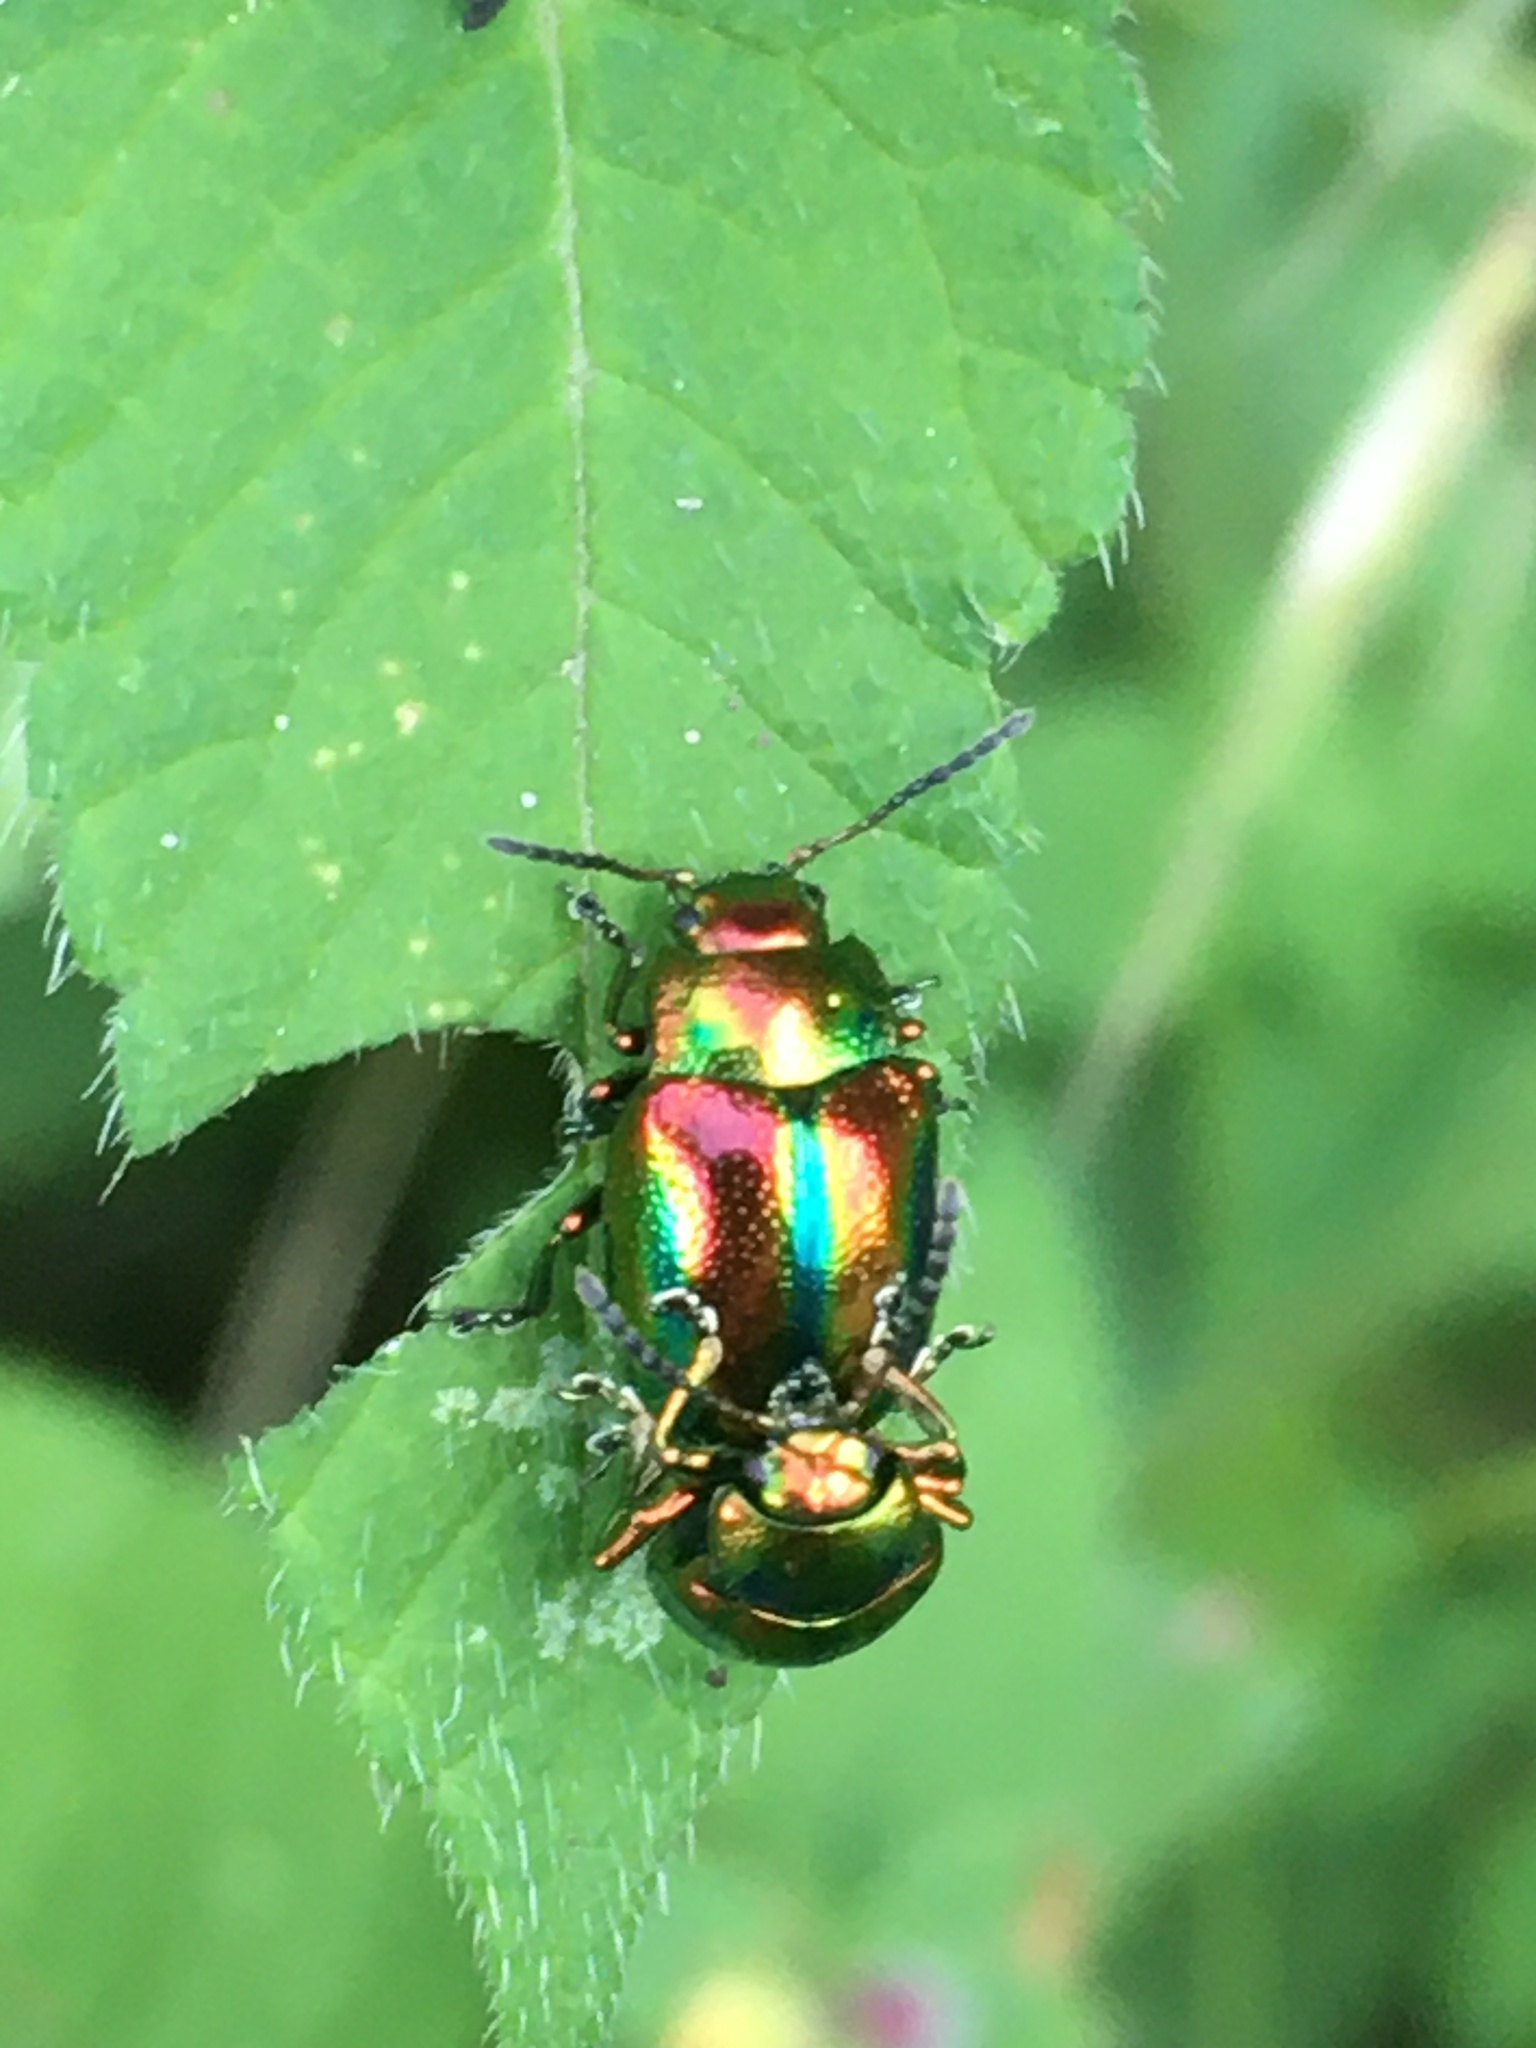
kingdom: Animalia
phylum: Arthropoda
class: Insecta
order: Coleoptera
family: Chrysomelidae
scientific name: Chrysomelidae
